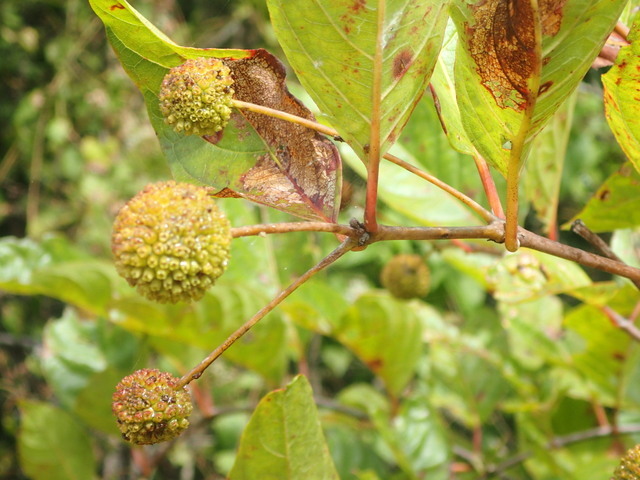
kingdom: Plantae
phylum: Tracheophyta
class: Magnoliopsida
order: Gentianales
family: Rubiaceae
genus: Cephalanthus
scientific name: Cephalanthus occidentalis
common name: Button-willow
